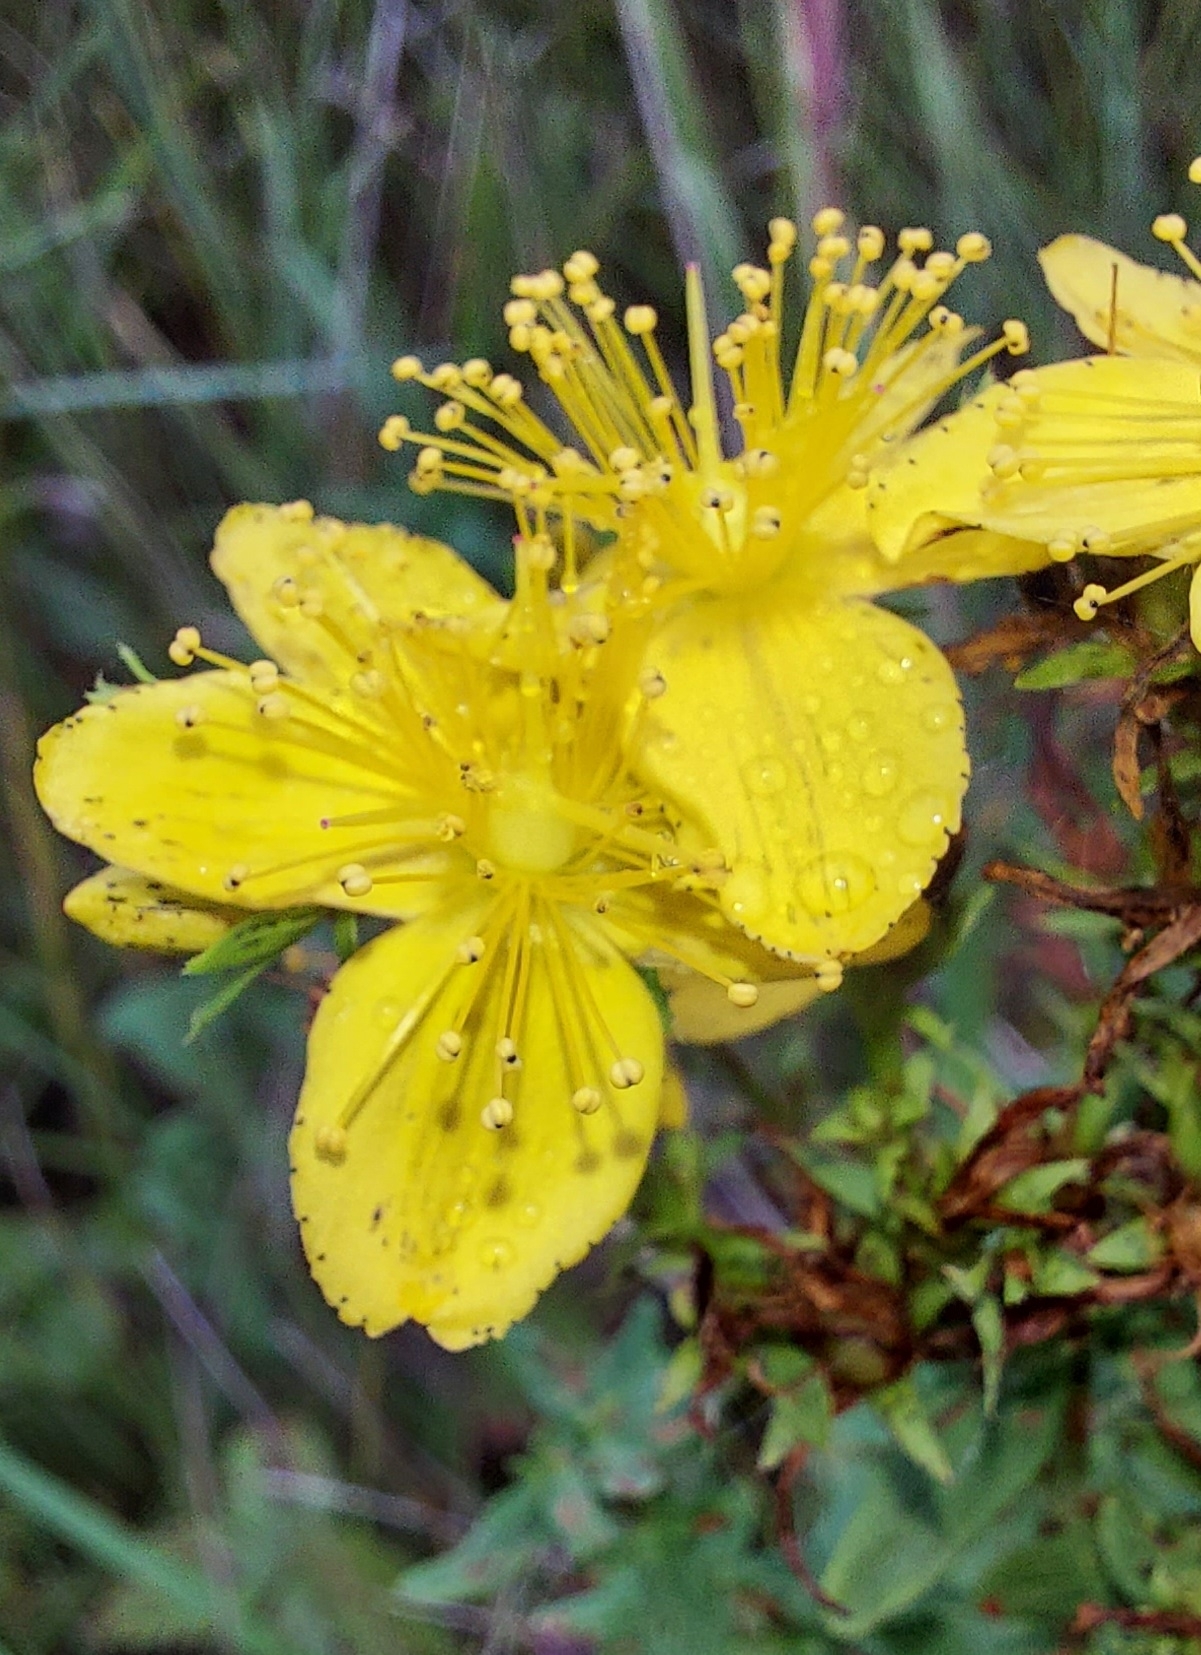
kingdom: Plantae
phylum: Tracheophyta
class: Magnoliopsida
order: Malpighiales
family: Hypericaceae
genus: Hypericum
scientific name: Hypericum perforatum
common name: Common st. johnswort
